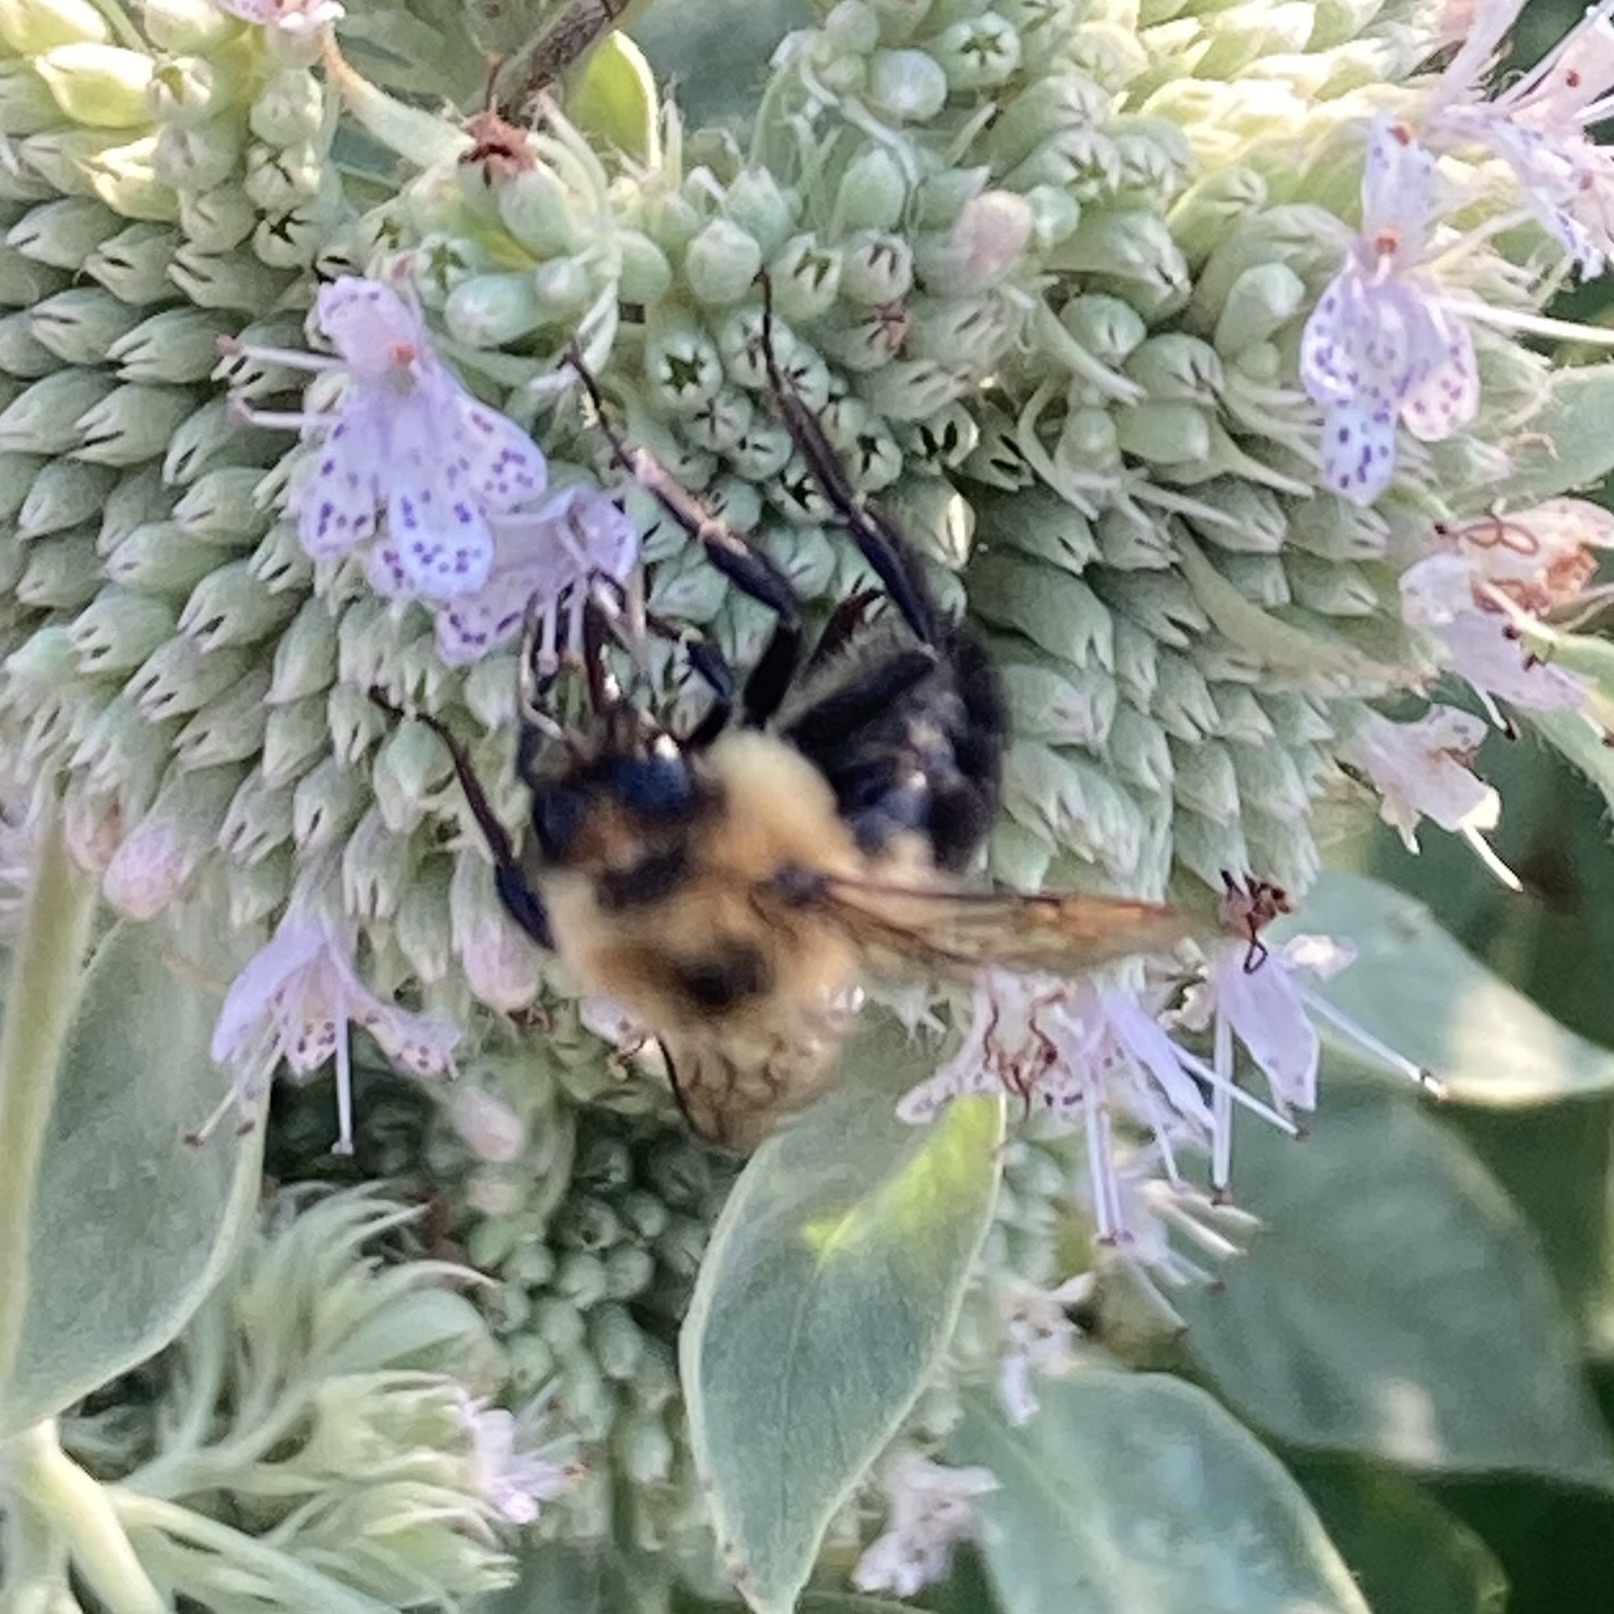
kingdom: Animalia
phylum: Arthropoda
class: Insecta
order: Hymenoptera
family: Apidae
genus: Bombus
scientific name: Bombus bimaculatus
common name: Two-spotted bumble bee
